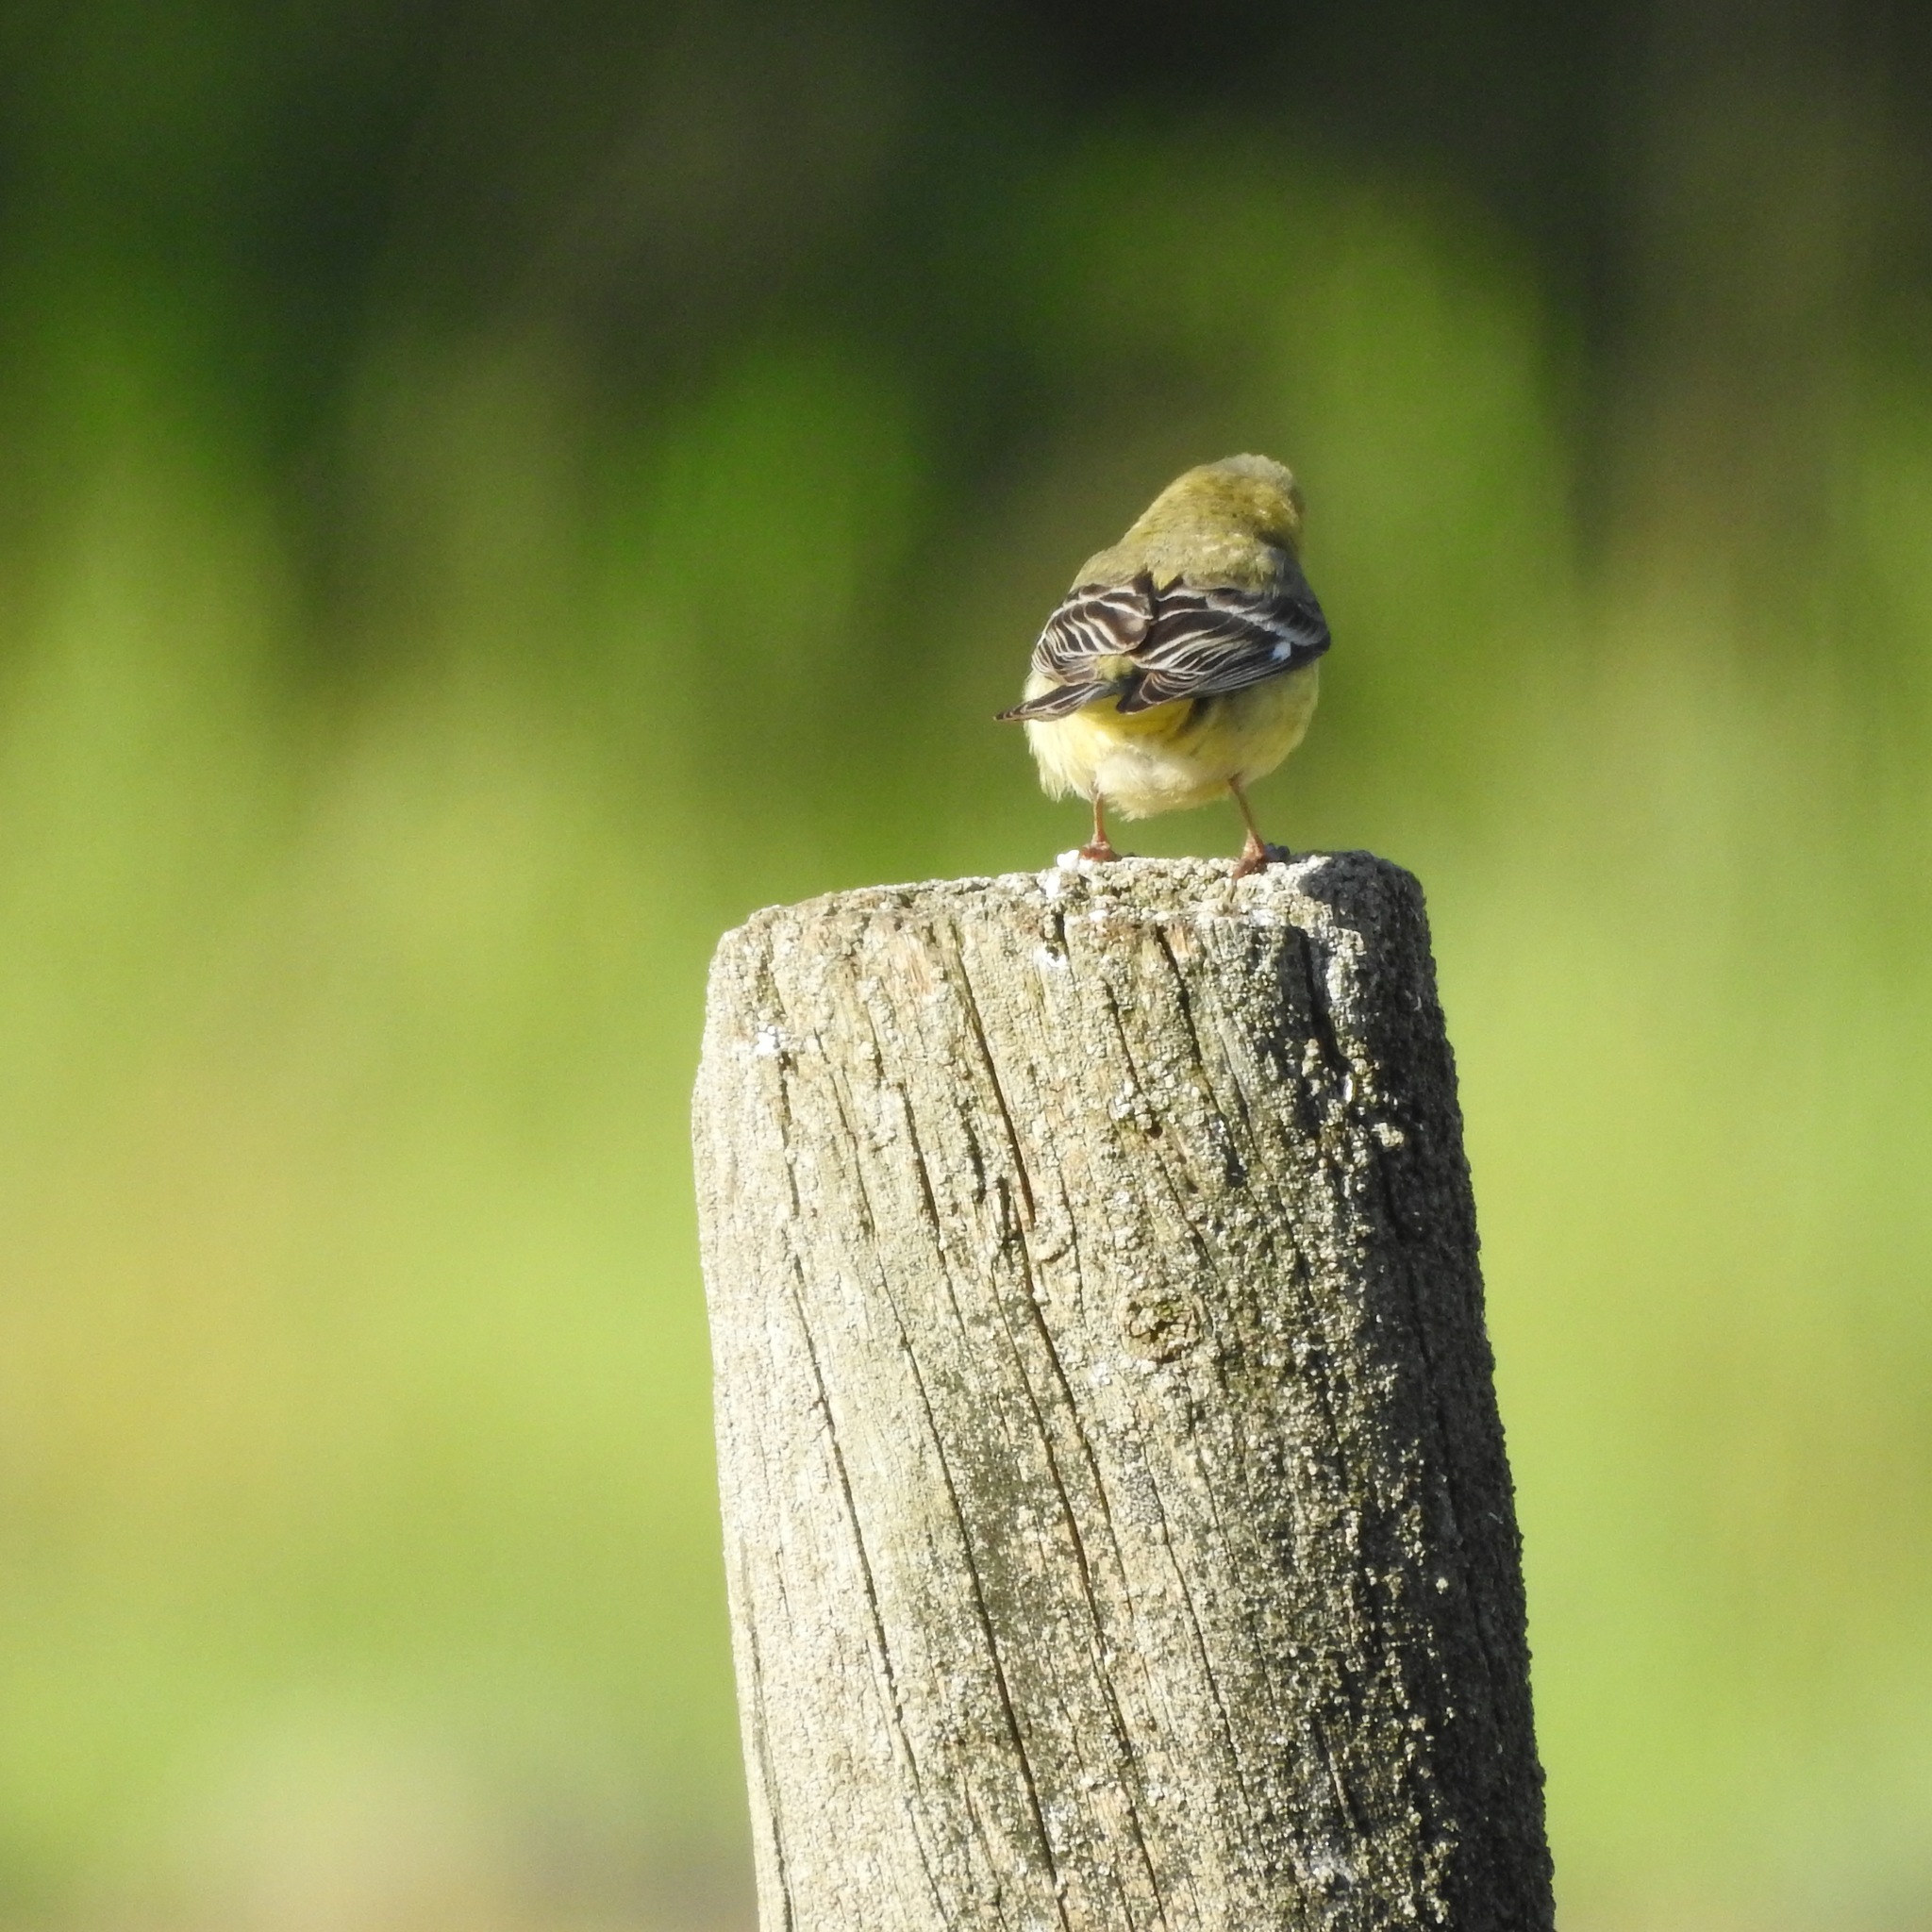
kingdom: Animalia
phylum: Chordata
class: Aves
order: Passeriformes
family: Fringillidae
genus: Spinus
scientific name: Spinus psaltria
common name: Lesser goldfinch
